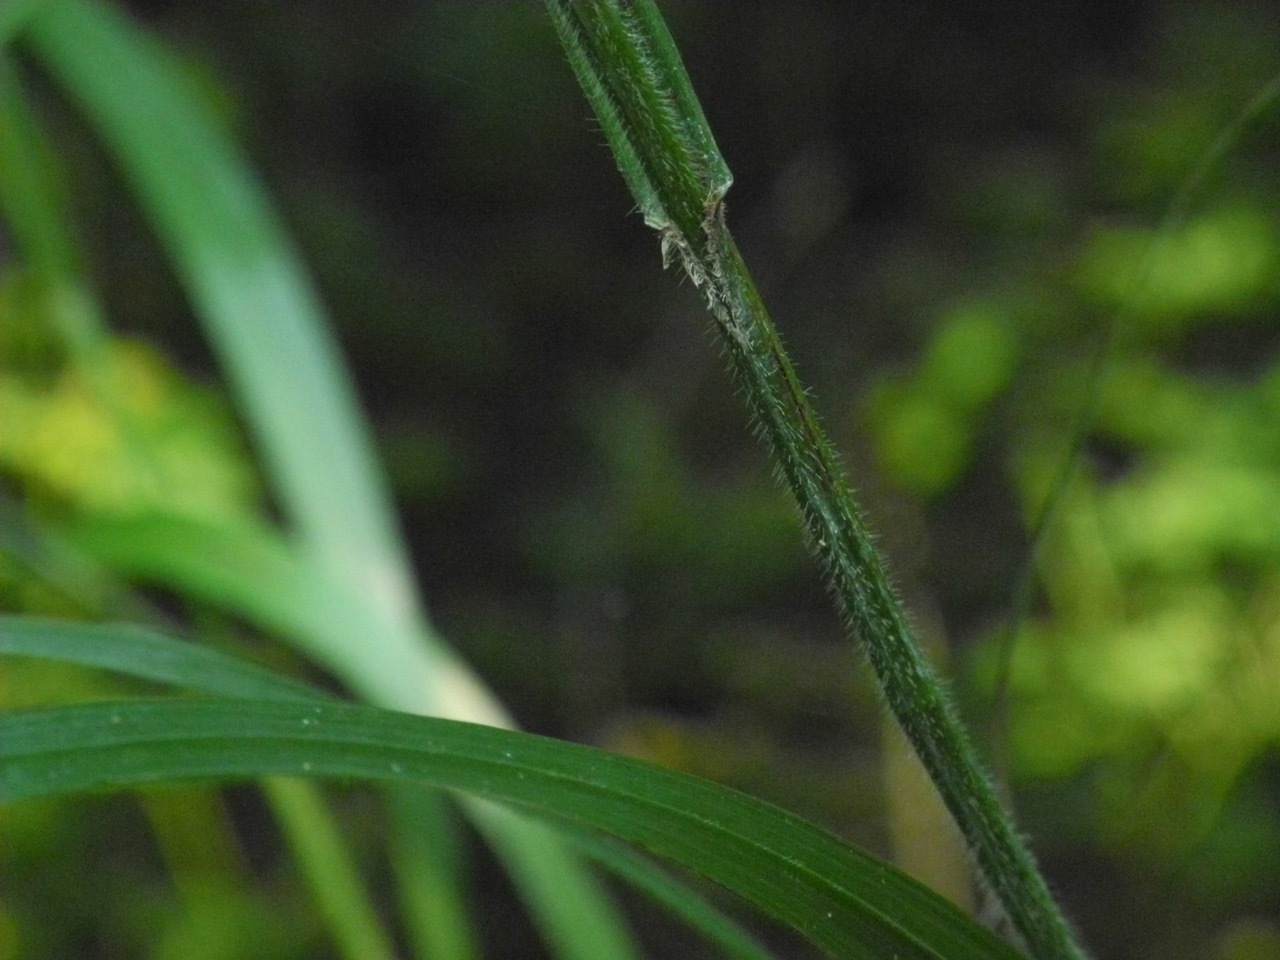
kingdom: Plantae
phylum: Tracheophyta
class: Liliopsida
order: Poales
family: Poaceae
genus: Bromus
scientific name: Bromus pubescens
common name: Hairy wood brome grass
